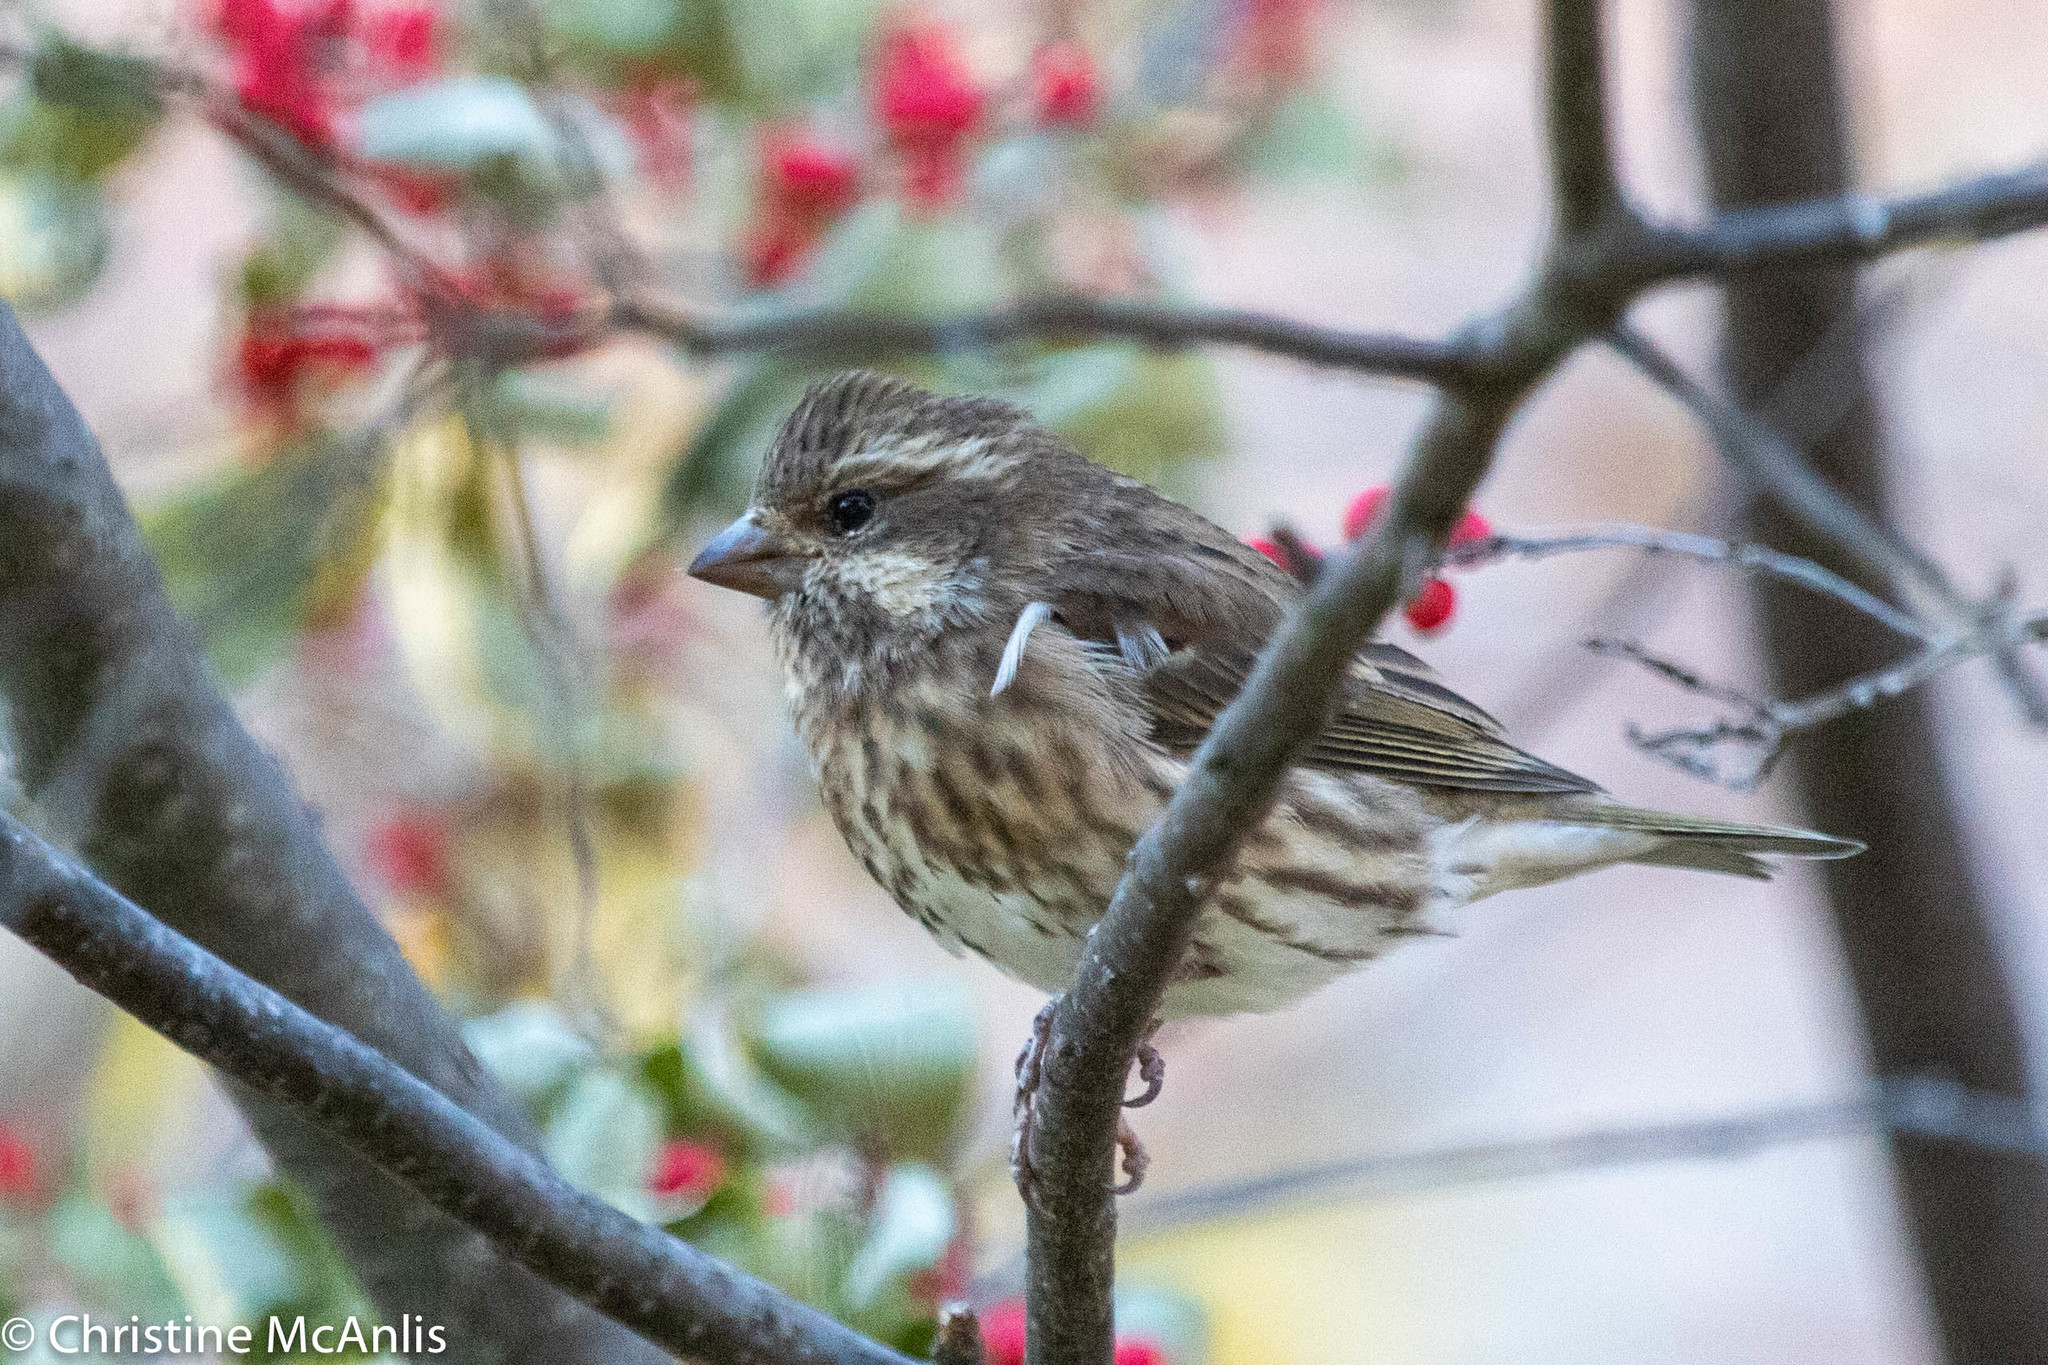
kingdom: Animalia
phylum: Chordata
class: Aves
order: Passeriformes
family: Fringillidae
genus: Haemorhous
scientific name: Haemorhous purpureus
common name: Purple finch
